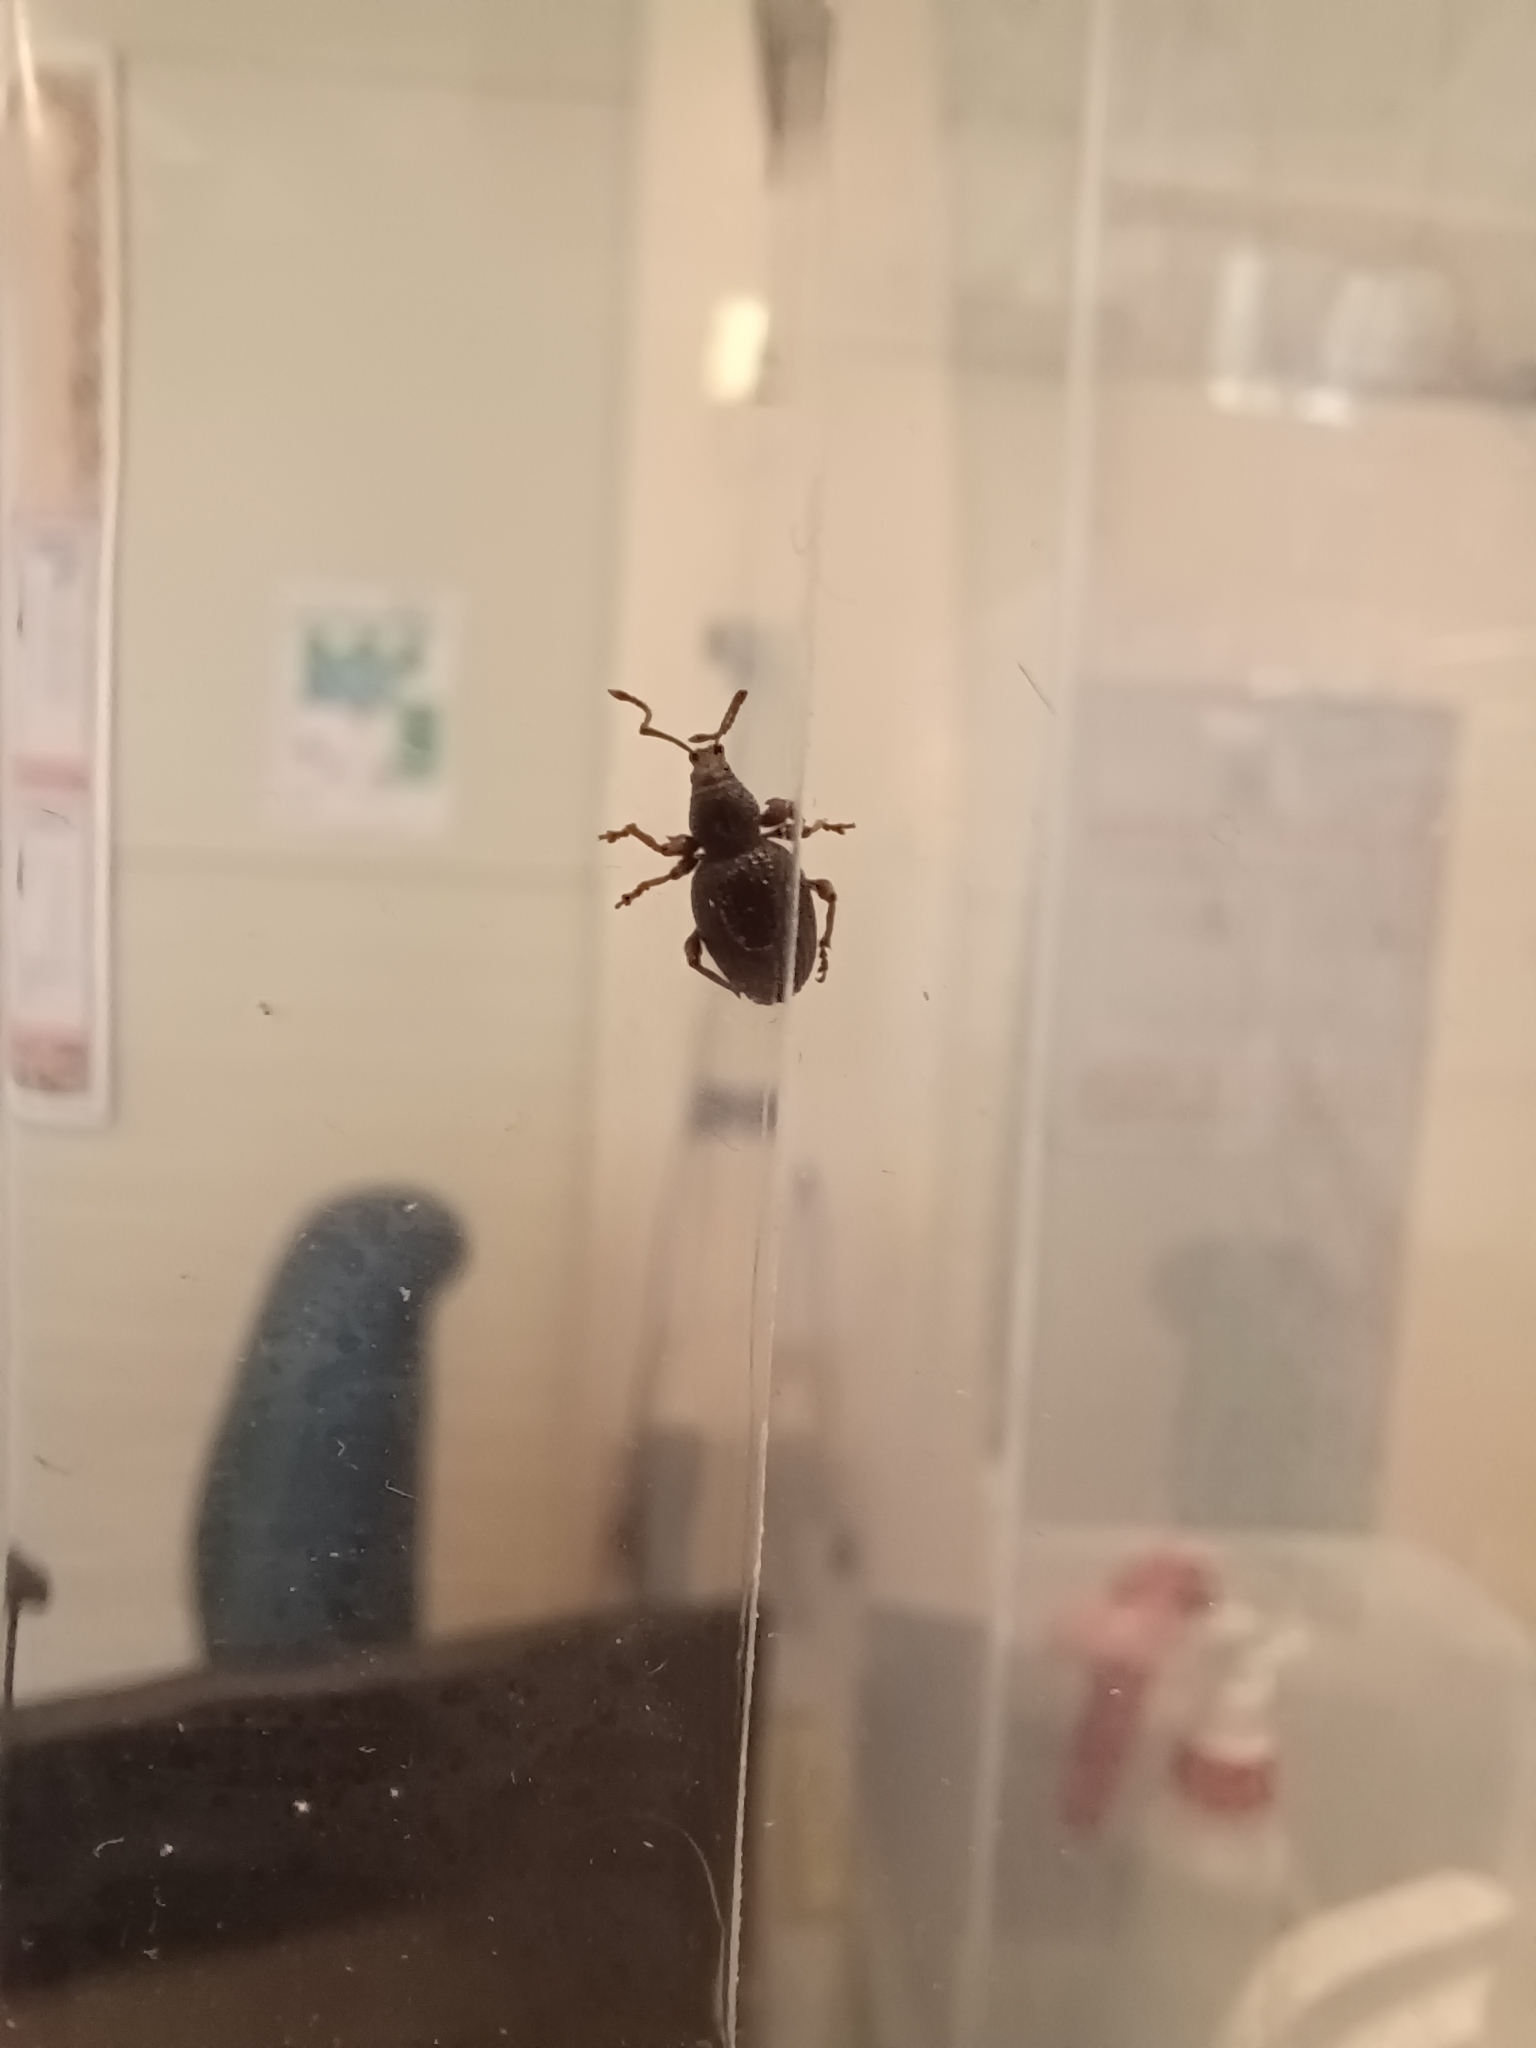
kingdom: Animalia
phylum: Arthropoda
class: Insecta
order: Coleoptera
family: Curculionidae
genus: Otiorhynchus
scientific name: Otiorhynchus ovatus
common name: Strawberry root weevil
